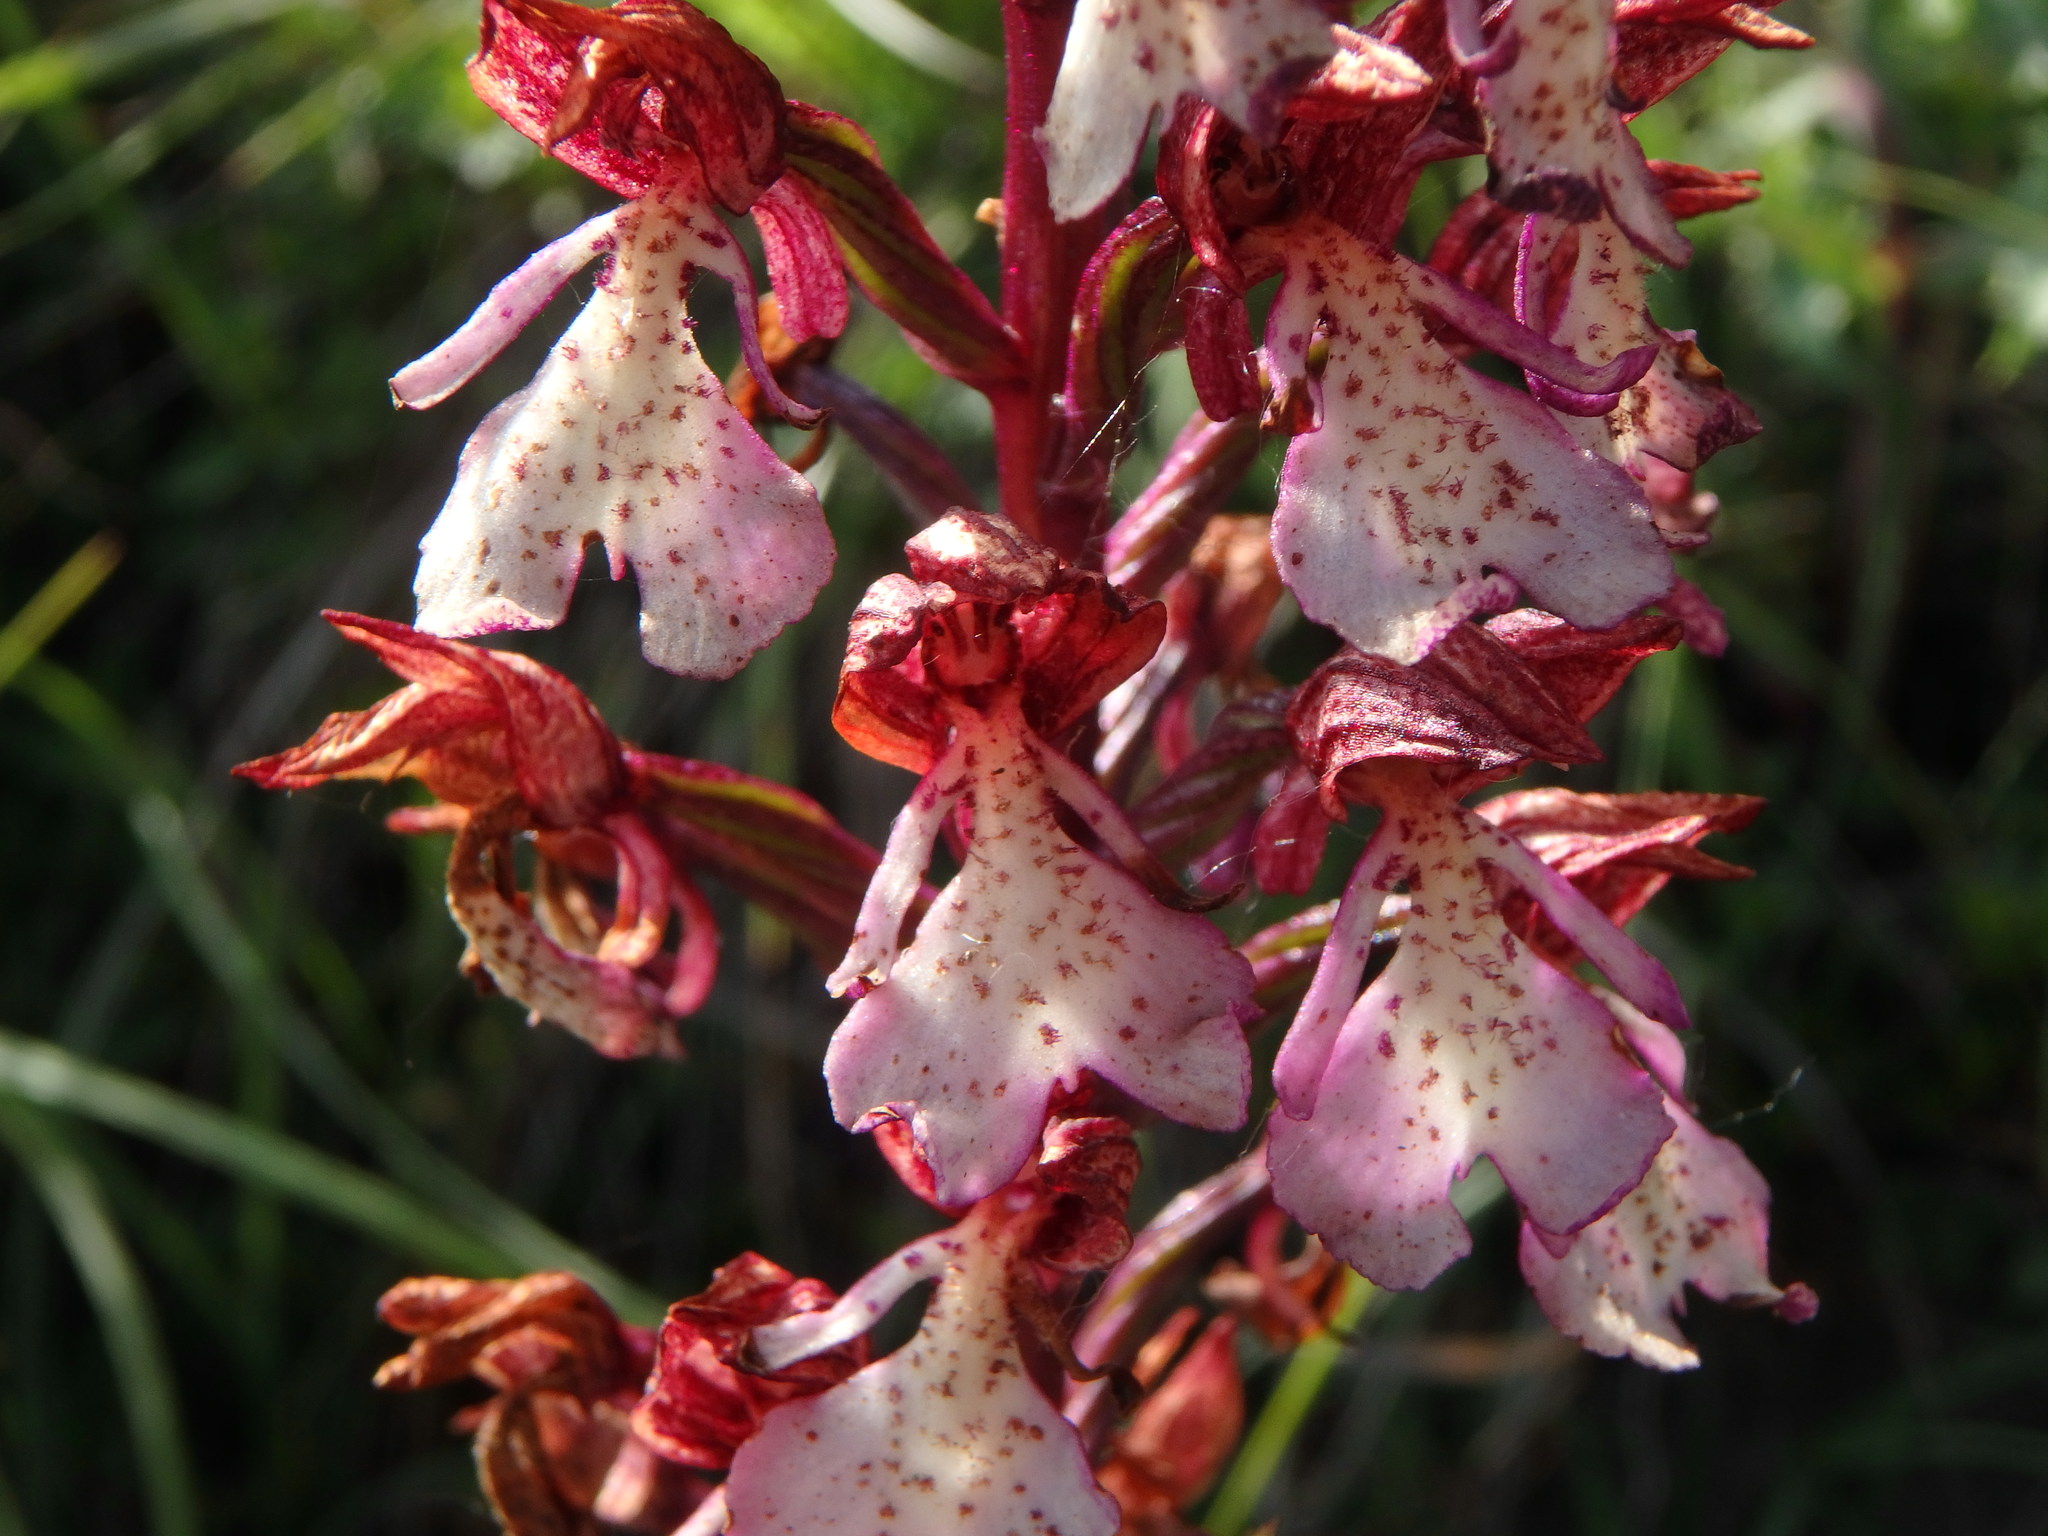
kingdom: Plantae
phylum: Tracheophyta
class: Liliopsida
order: Asparagales
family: Orchidaceae
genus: Orchis
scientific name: Orchis purpurea
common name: Lady orchid
